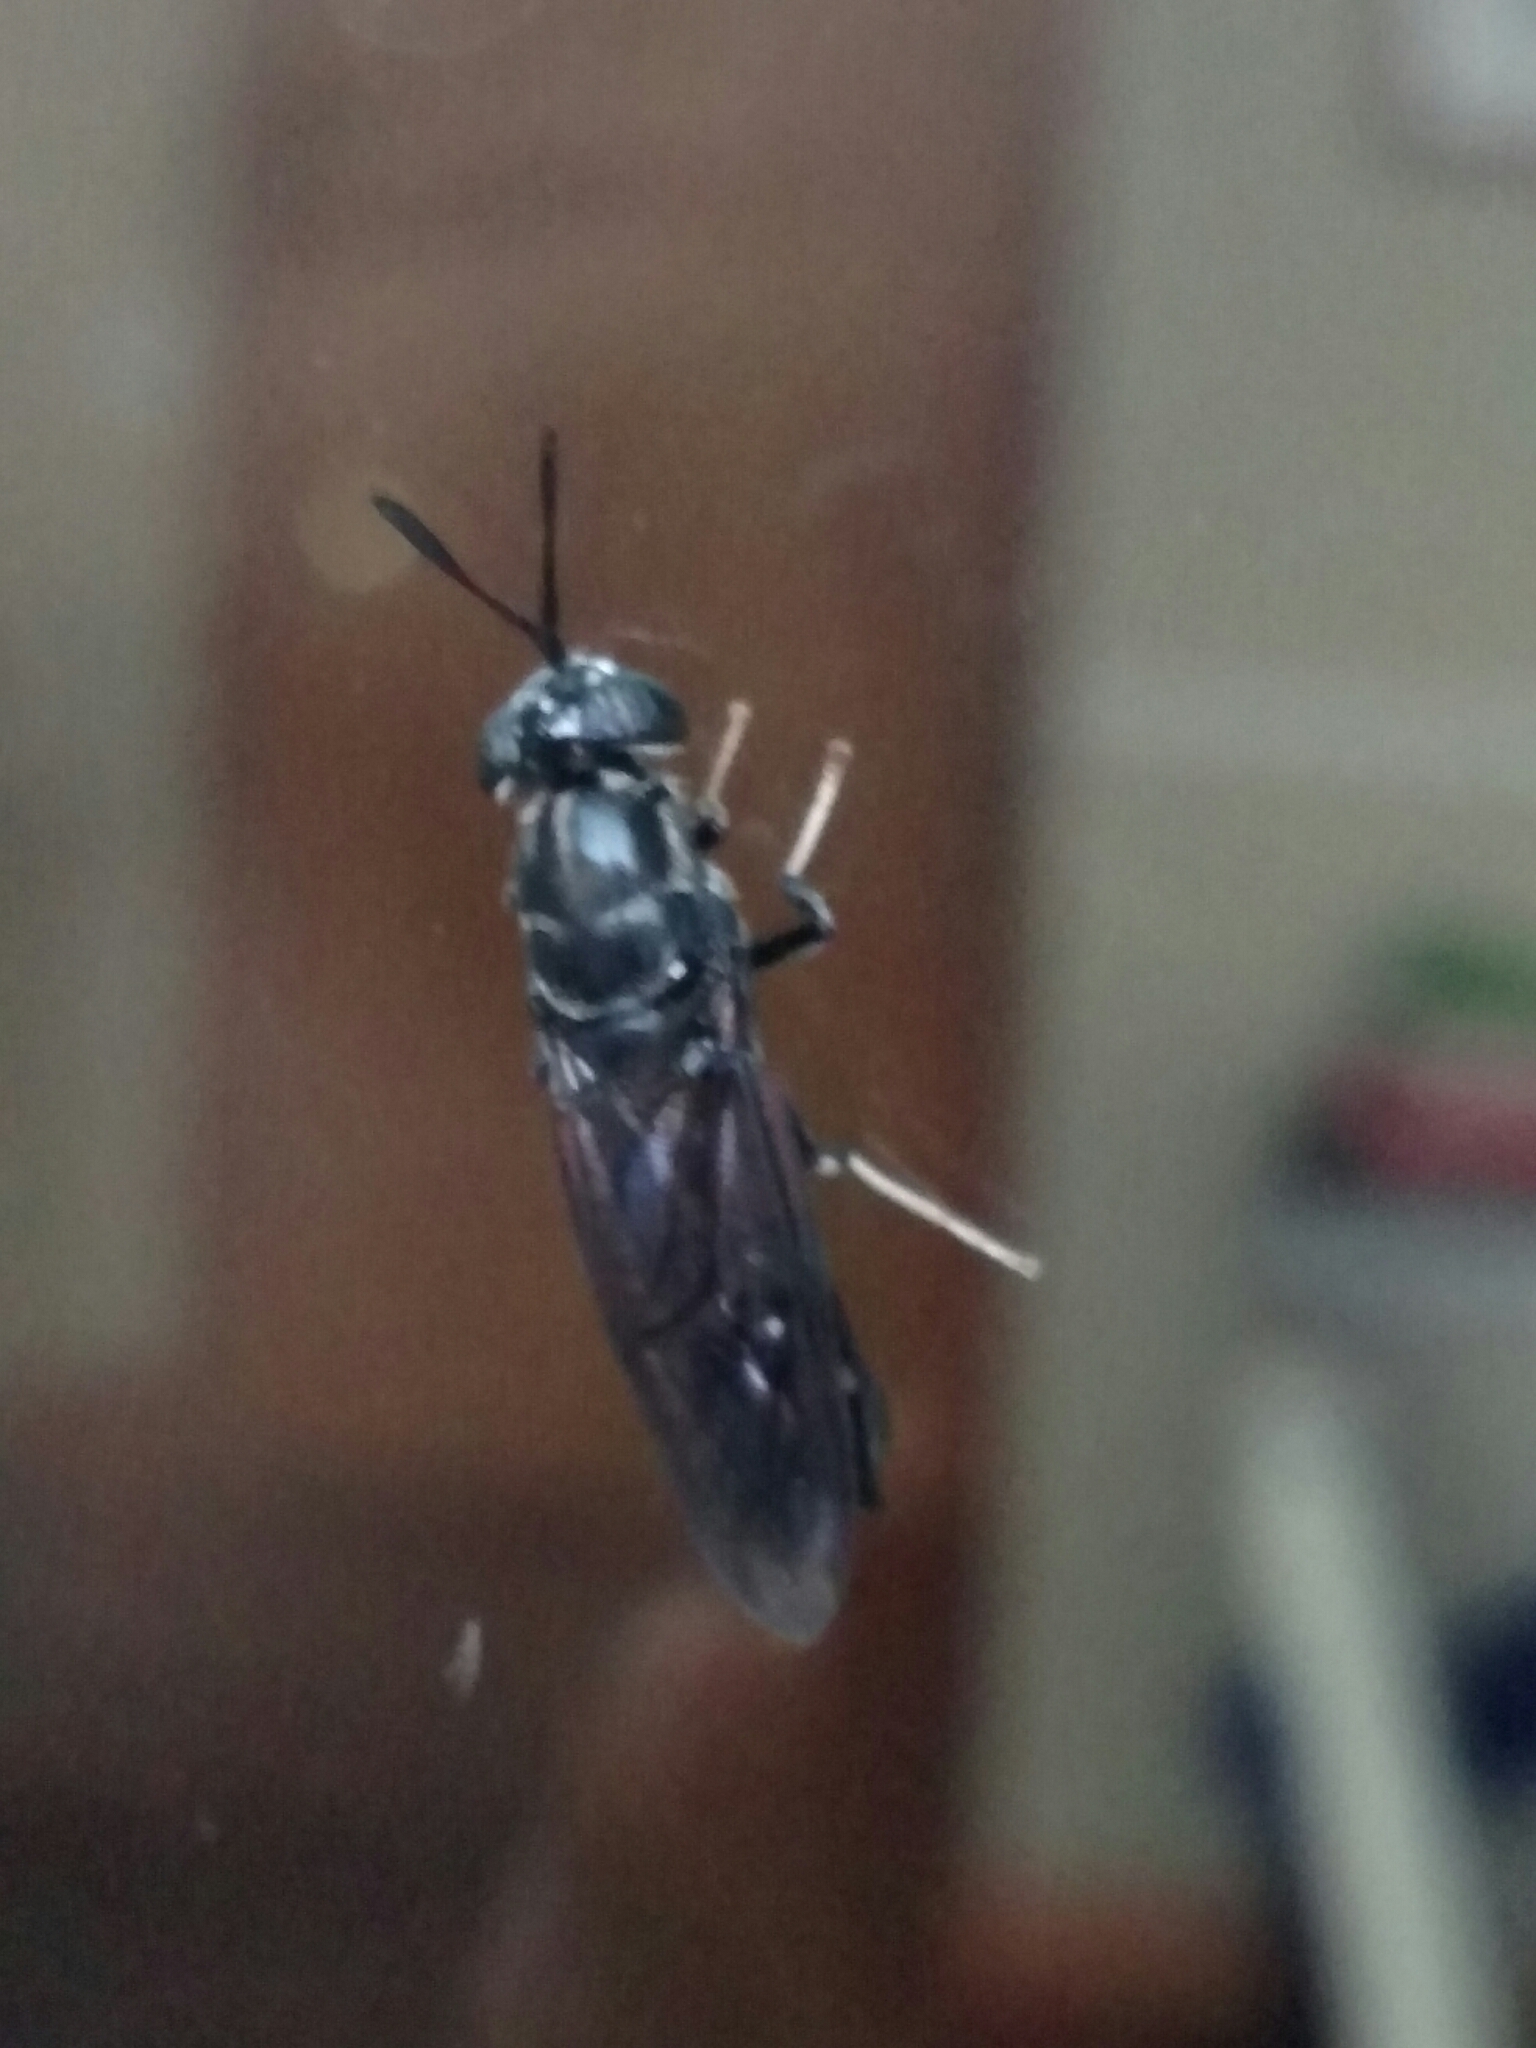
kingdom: Animalia
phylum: Arthropoda
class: Insecta
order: Diptera
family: Stratiomyidae
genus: Hermetia
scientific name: Hermetia illucens
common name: Black soldier fly
